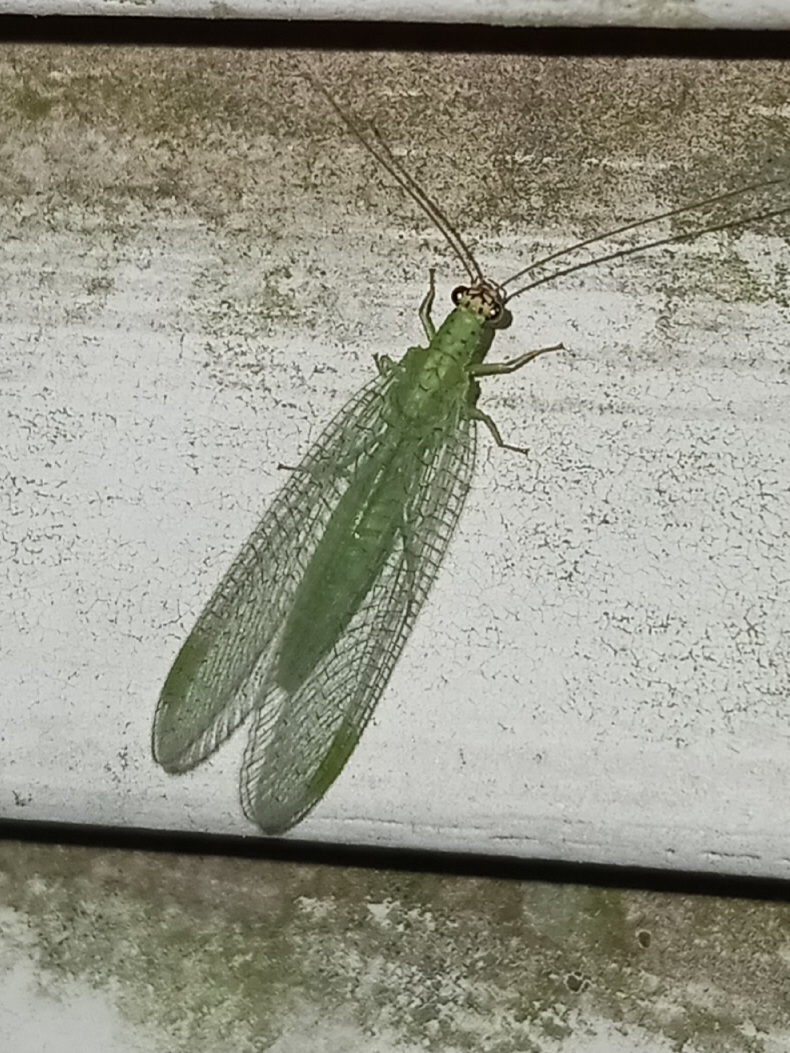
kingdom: Animalia
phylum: Arthropoda
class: Insecta
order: Neuroptera
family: Chrysopidae
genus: Chrysopa
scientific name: Chrysopa oculata
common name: Golden-eyed lacewing
